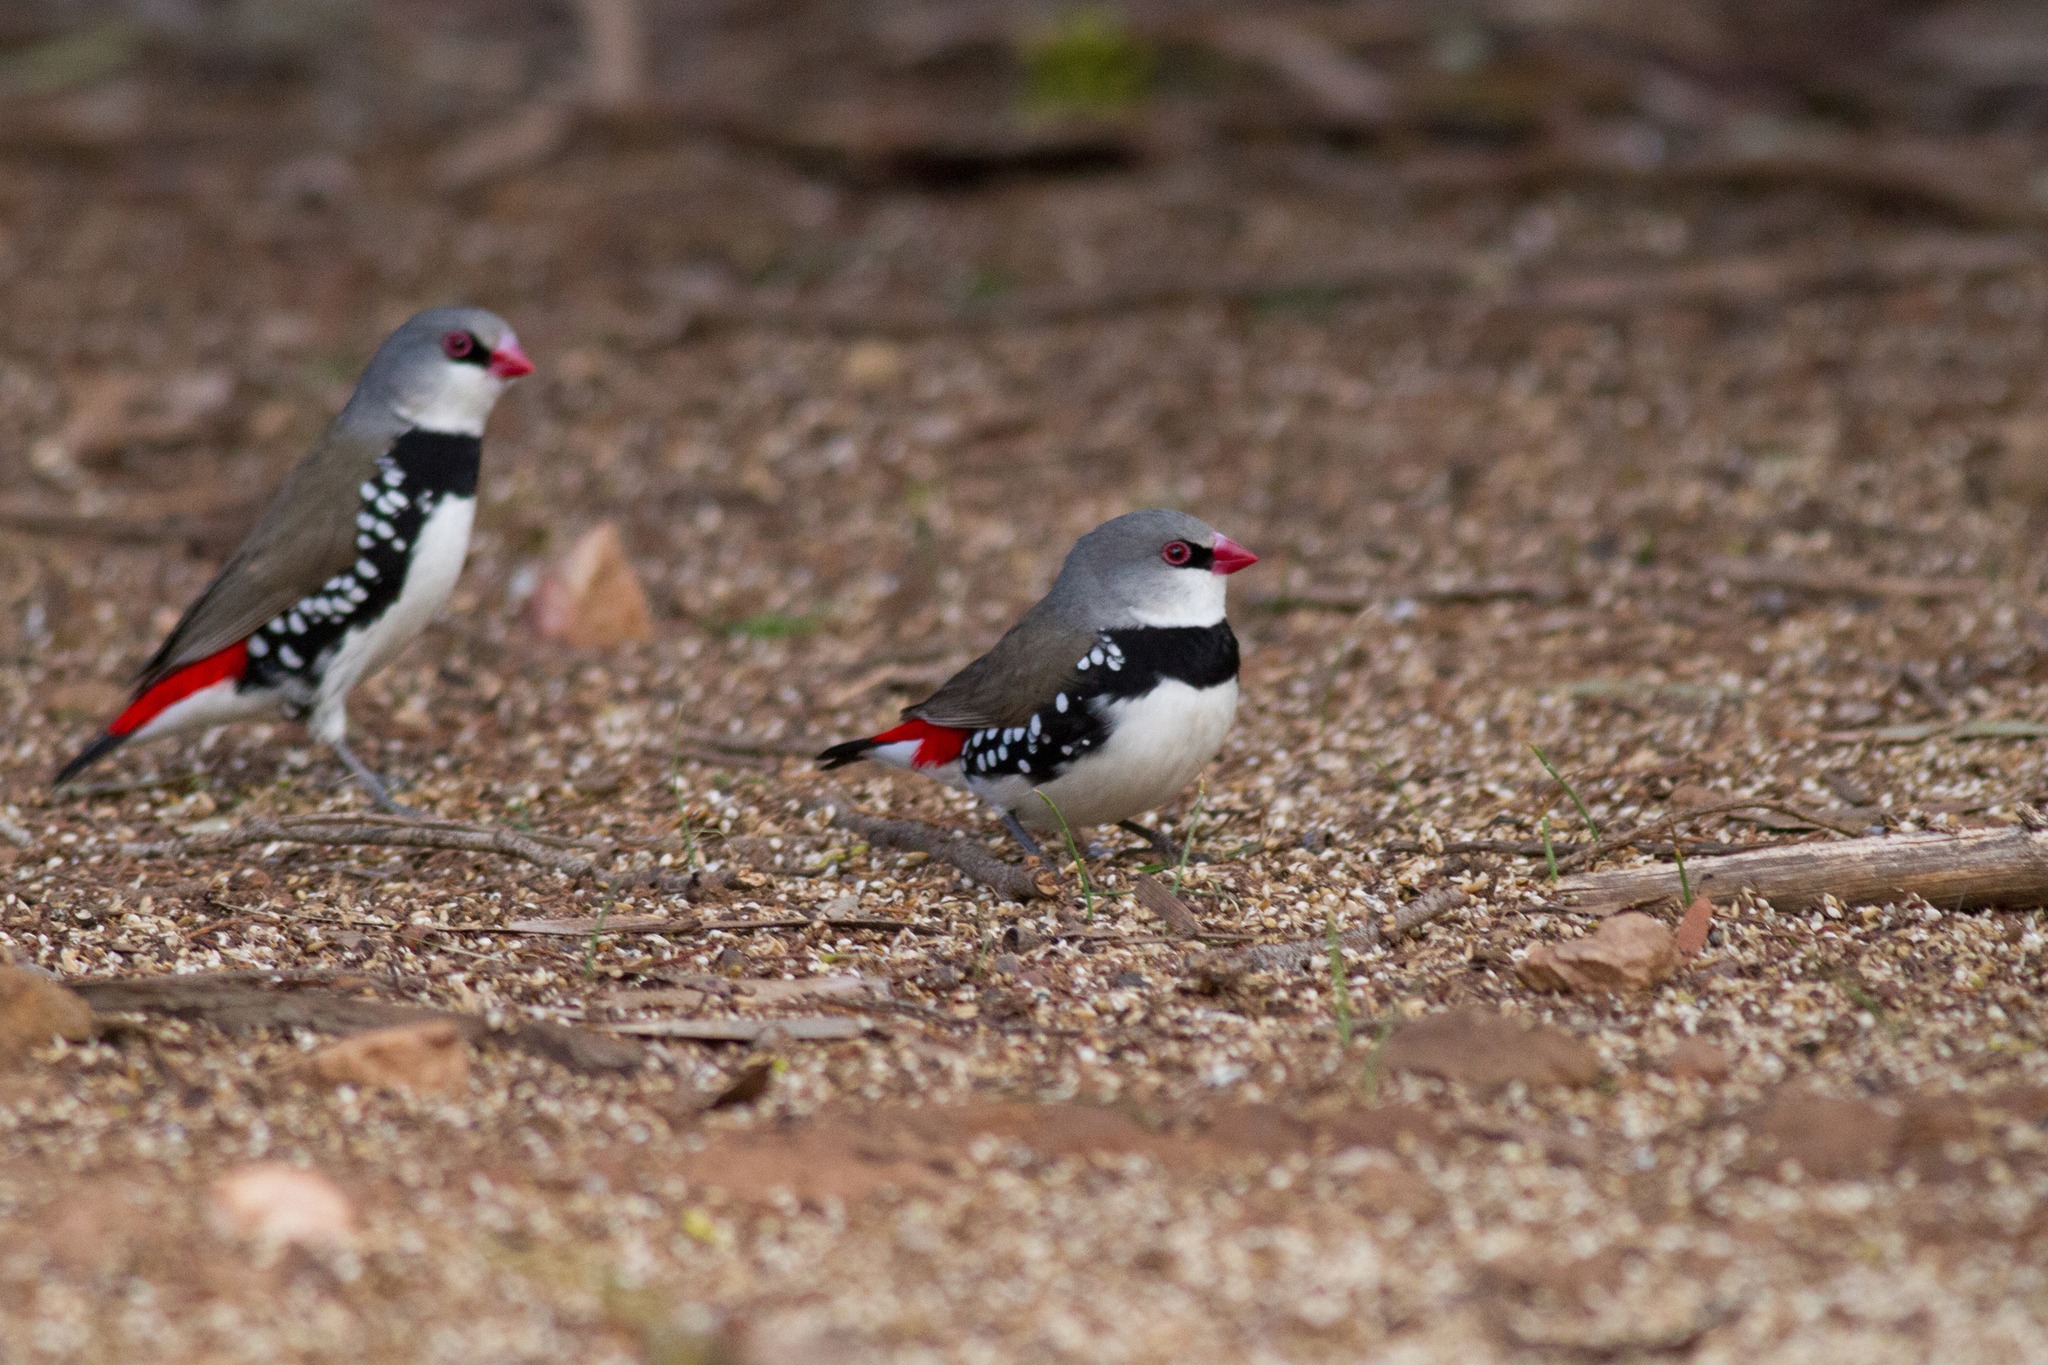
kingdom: Animalia
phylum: Chordata
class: Aves
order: Passeriformes
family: Estrildidae
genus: Stagonopleura
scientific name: Stagonopleura guttata
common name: Diamond firetail
